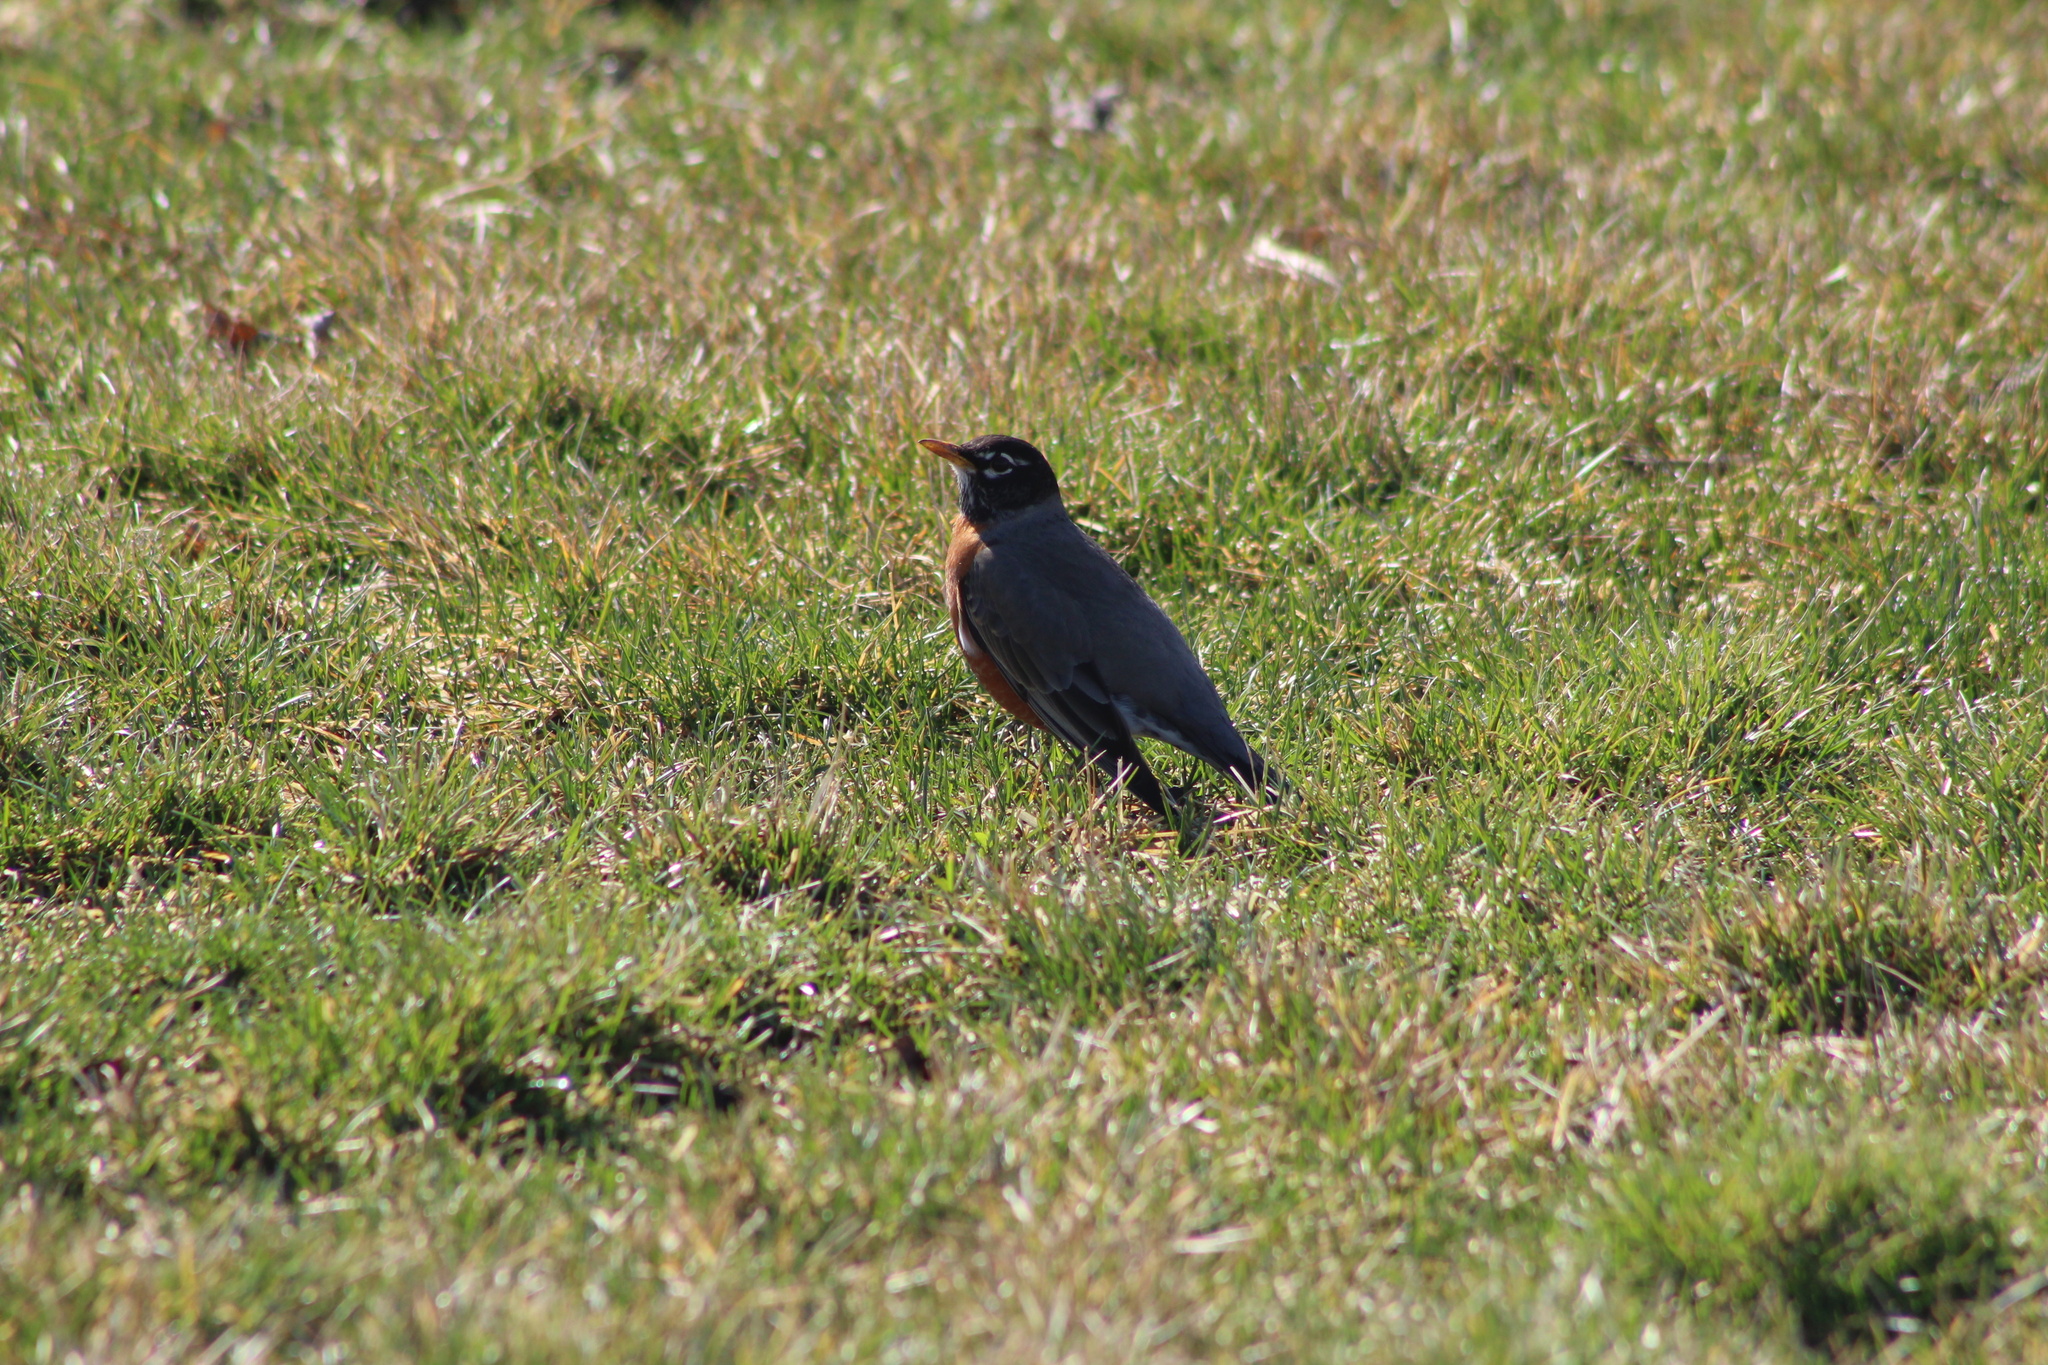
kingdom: Animalia
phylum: Chordata
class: Aves
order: Passeriformes
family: Turdidae
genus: Turdus
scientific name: Turdus migratorius
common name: American robin
